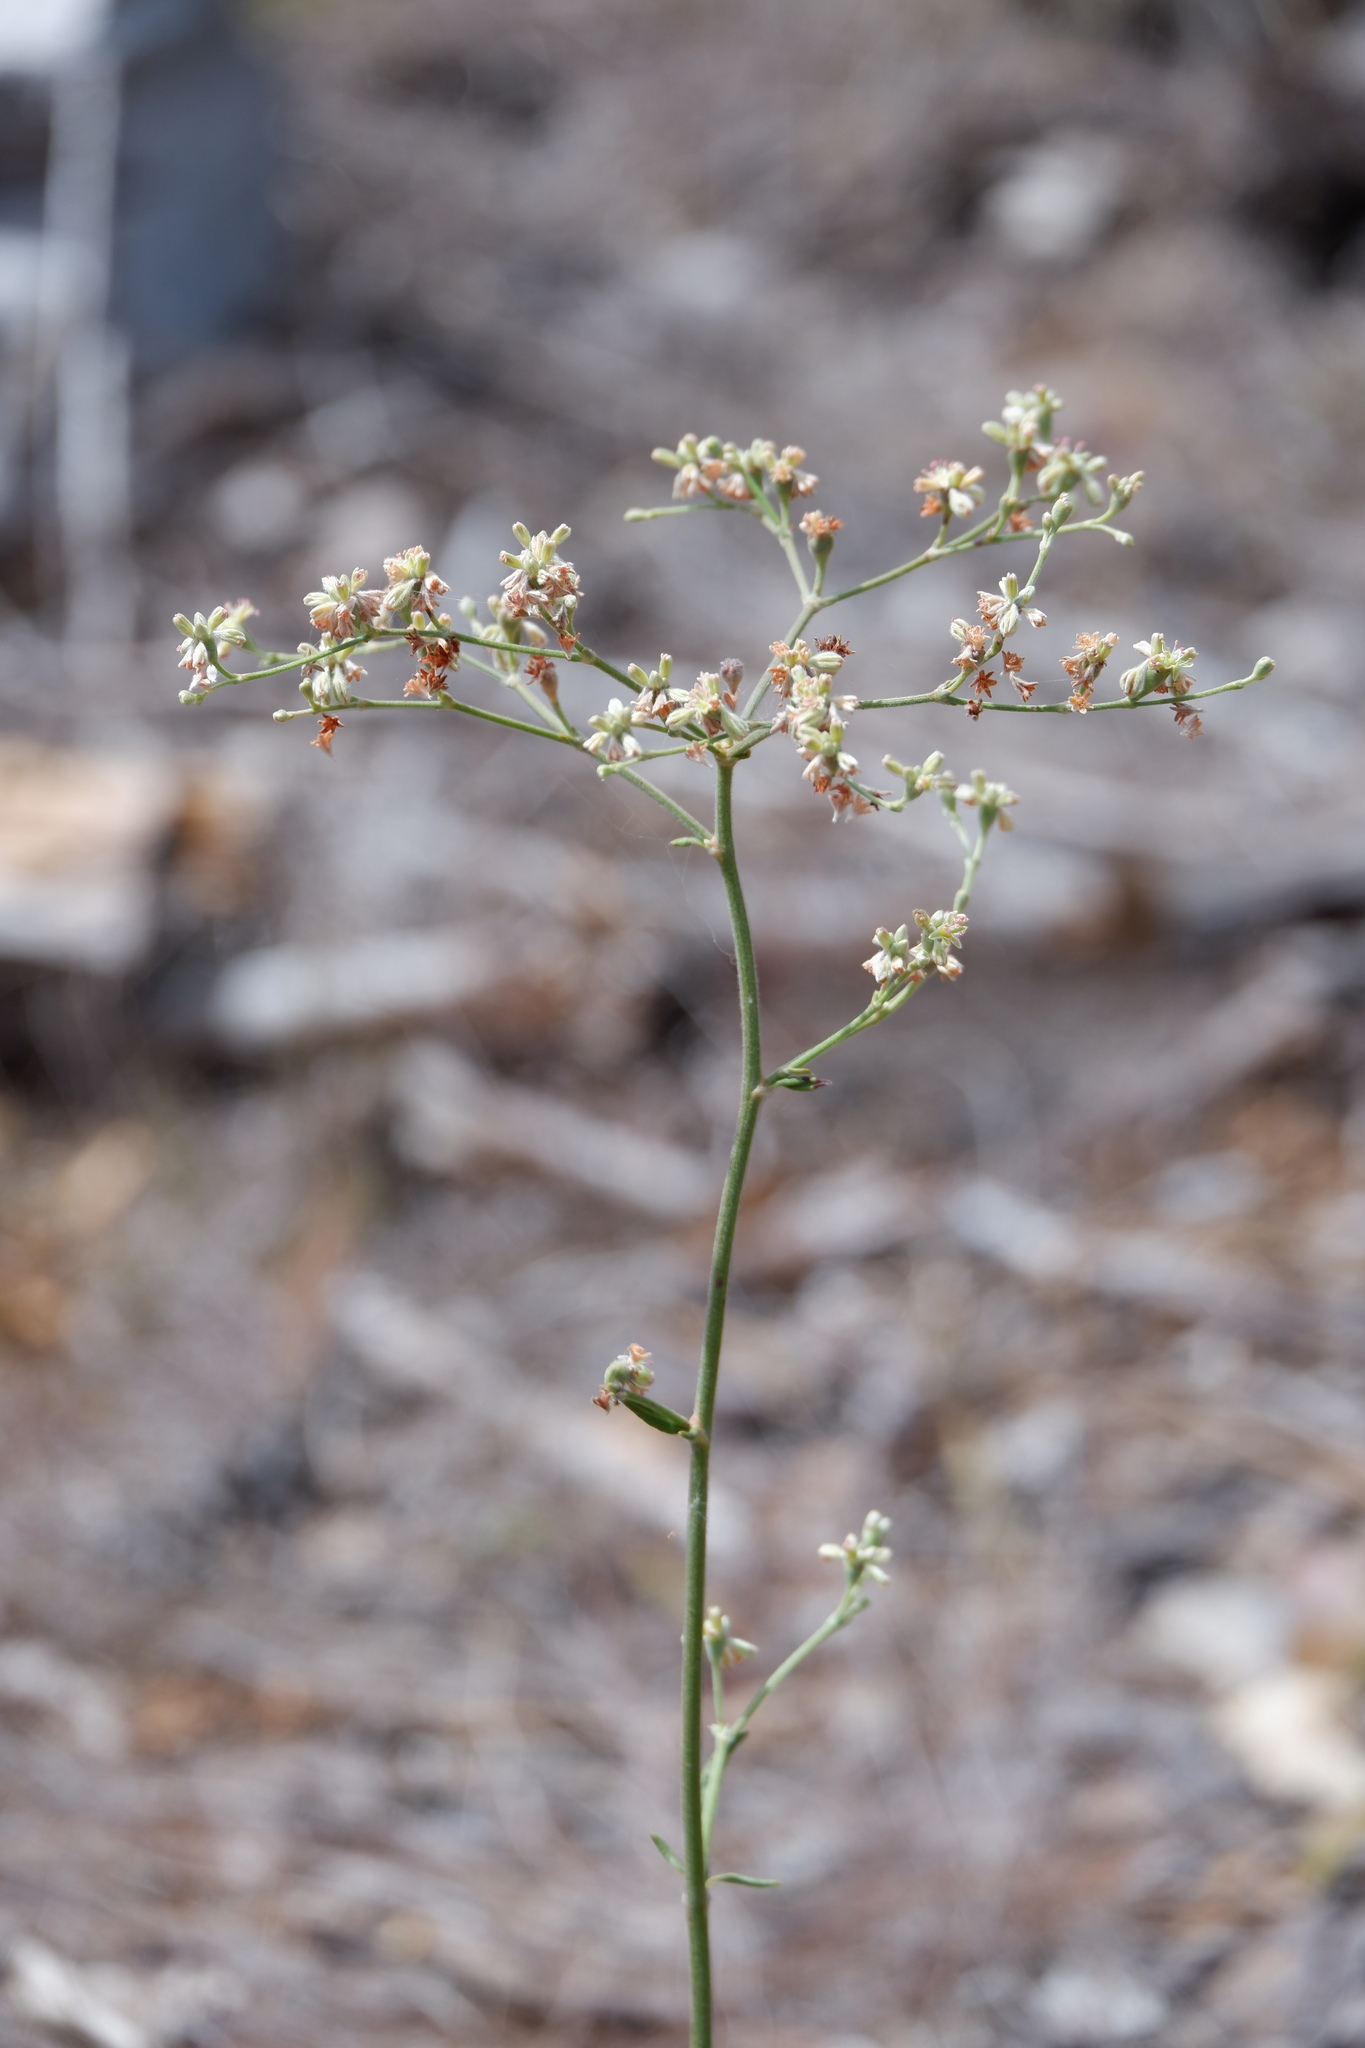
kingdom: Plantae
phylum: Tracheophyta
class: Magnoliopsida
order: Caryophyllales
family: Polygonaceae
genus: Eriogonum
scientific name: Eriogonum longifolium
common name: Longleaf wild buckwheat
